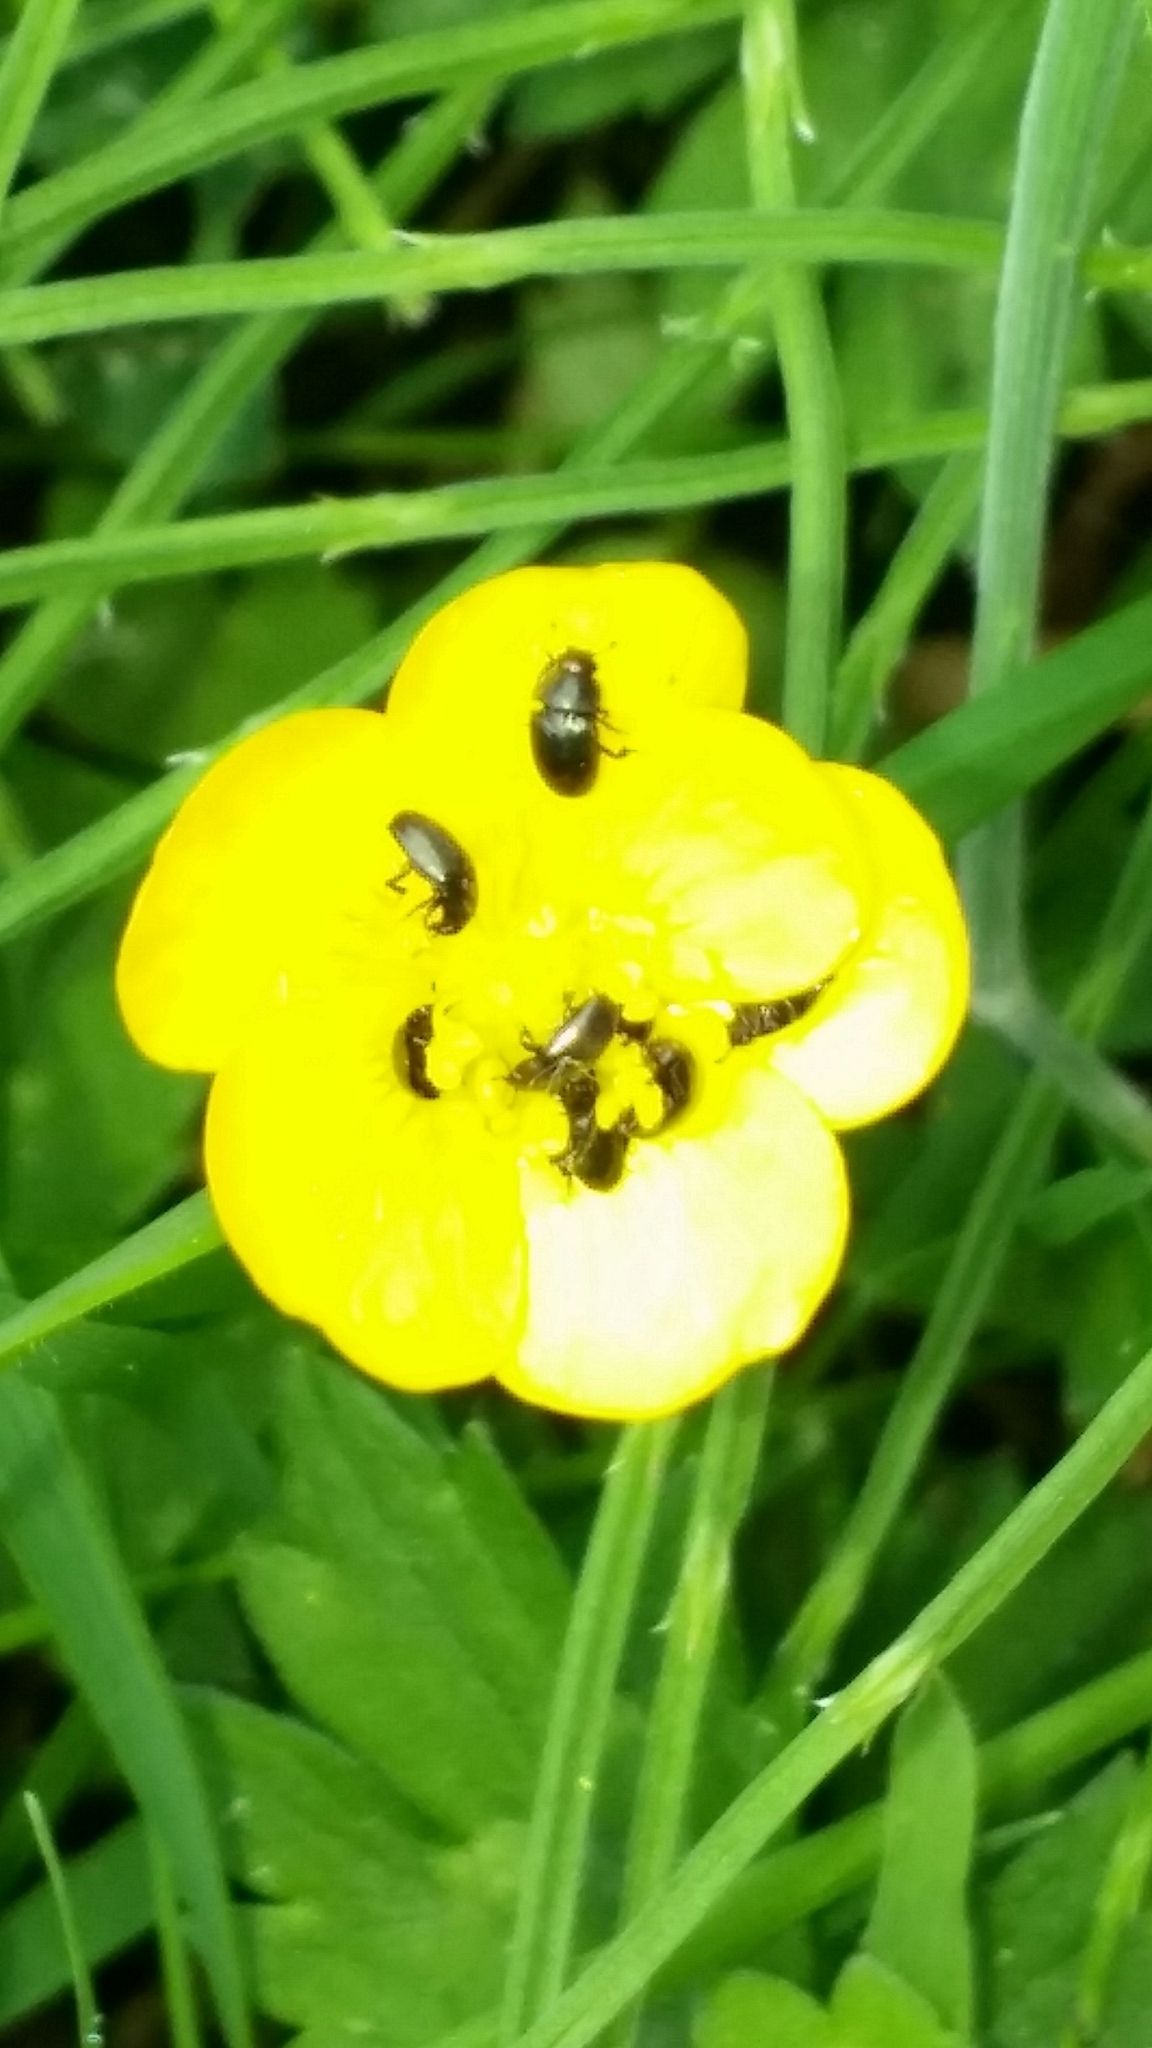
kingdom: Animalia
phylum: Arthropoda
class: Insecta
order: Coleoptera
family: Nitidulidae
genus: Brassicogethes
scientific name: Brassicogethes aeneus
